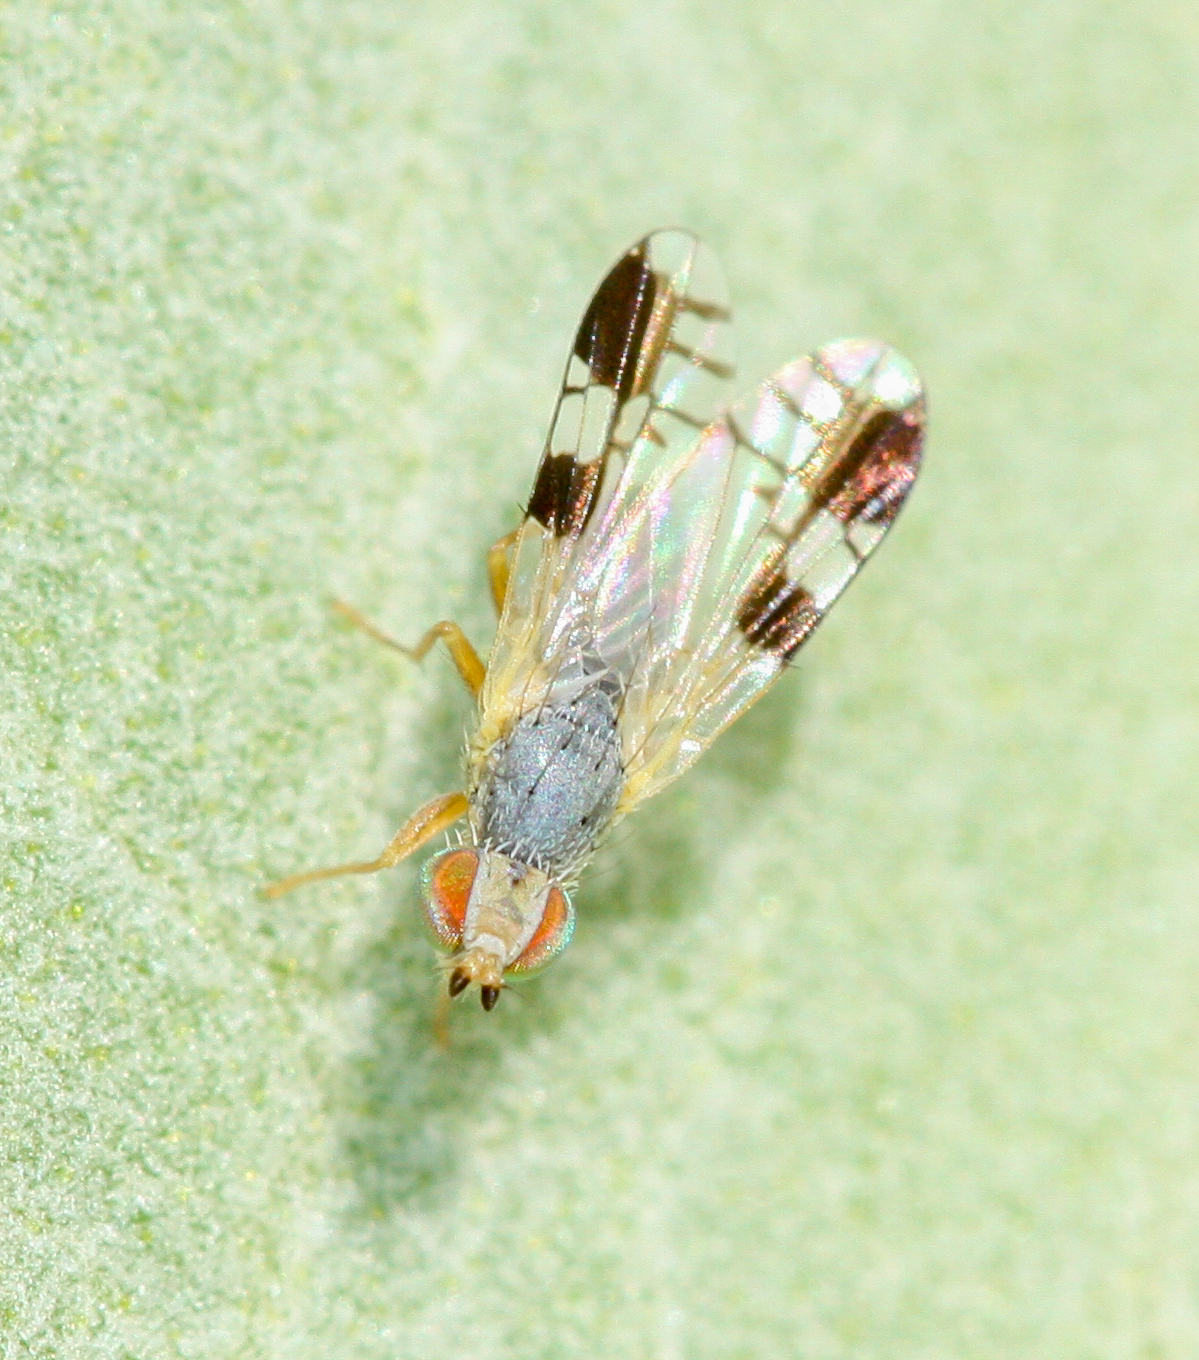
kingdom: Animalia
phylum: Arthropoda
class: Insecta
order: Diptera
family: Tephritidae
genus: Trupanea
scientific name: Trupanea nigricornis
